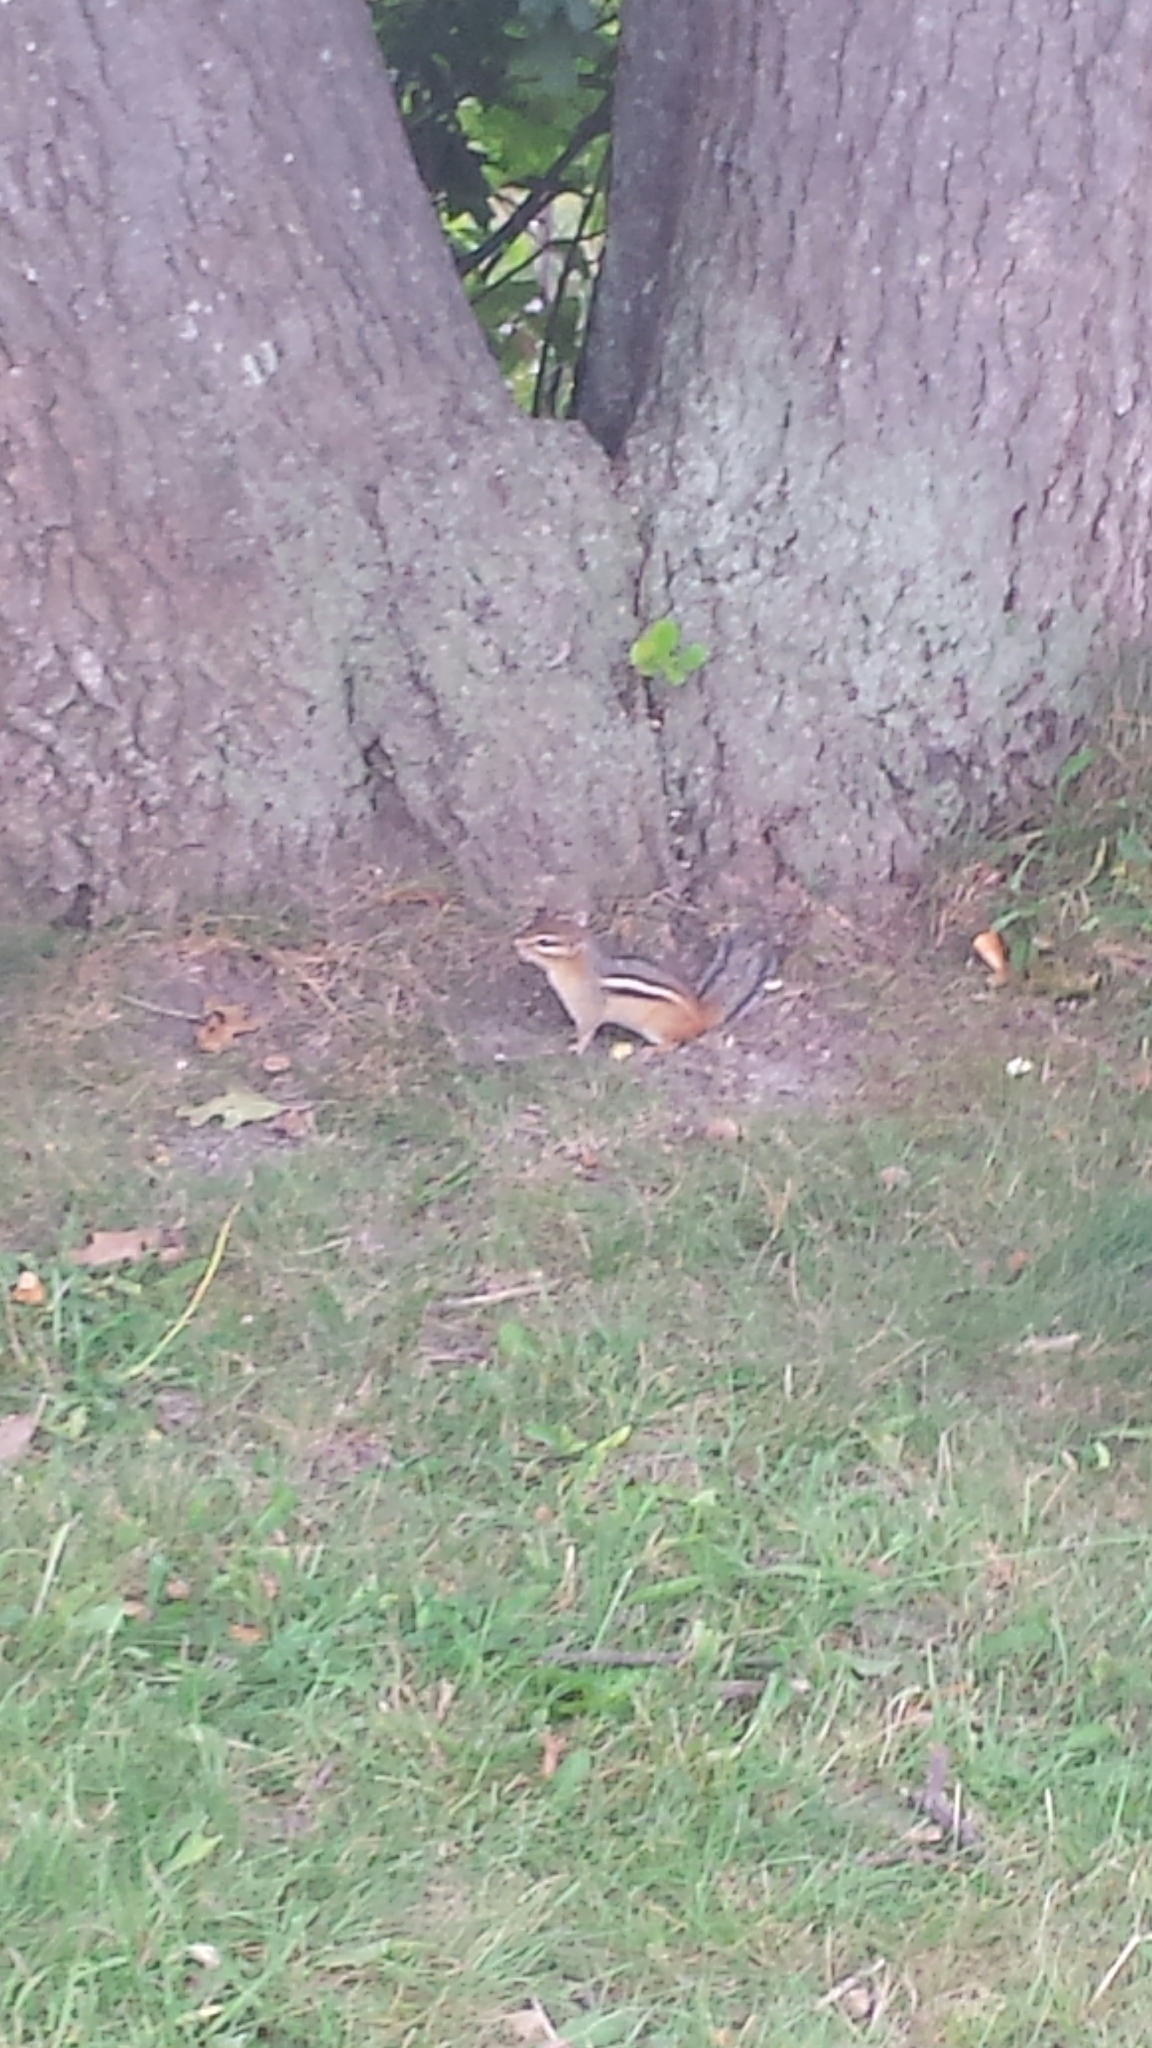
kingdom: Animalia
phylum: Chordata
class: Mammalia
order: Rodentia
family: Sciuridae
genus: Tamias
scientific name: Tamias striatus
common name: Eastern chipmunk
